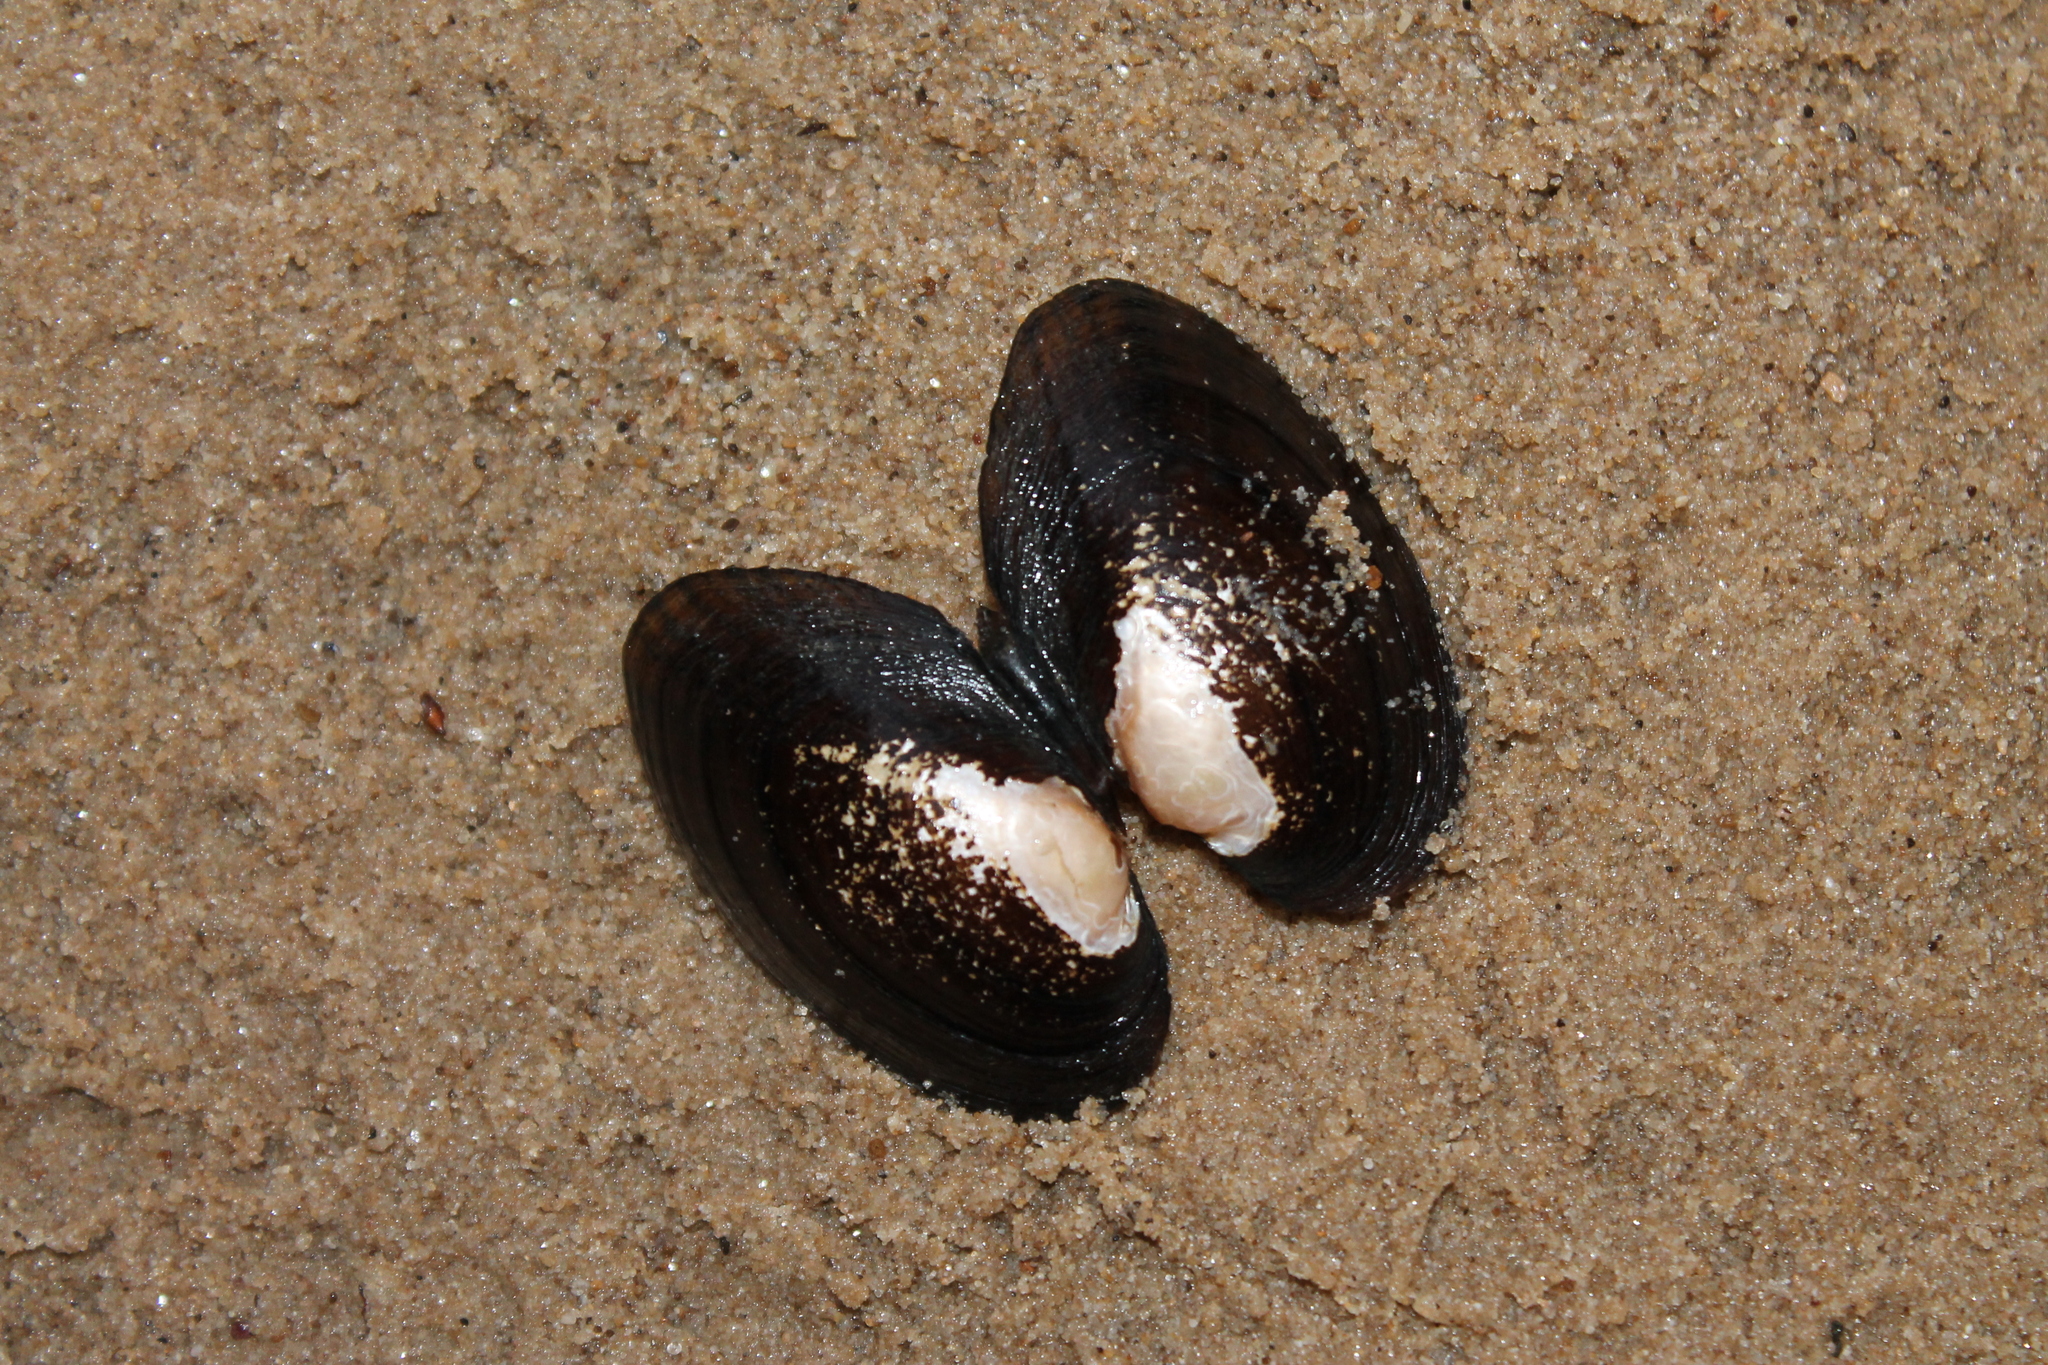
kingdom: Animalia
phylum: Mollusca
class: Bivalvia
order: Unionida
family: Unionidae
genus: Hamiota
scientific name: Hamiota perovalis
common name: Orangenacre mucket
